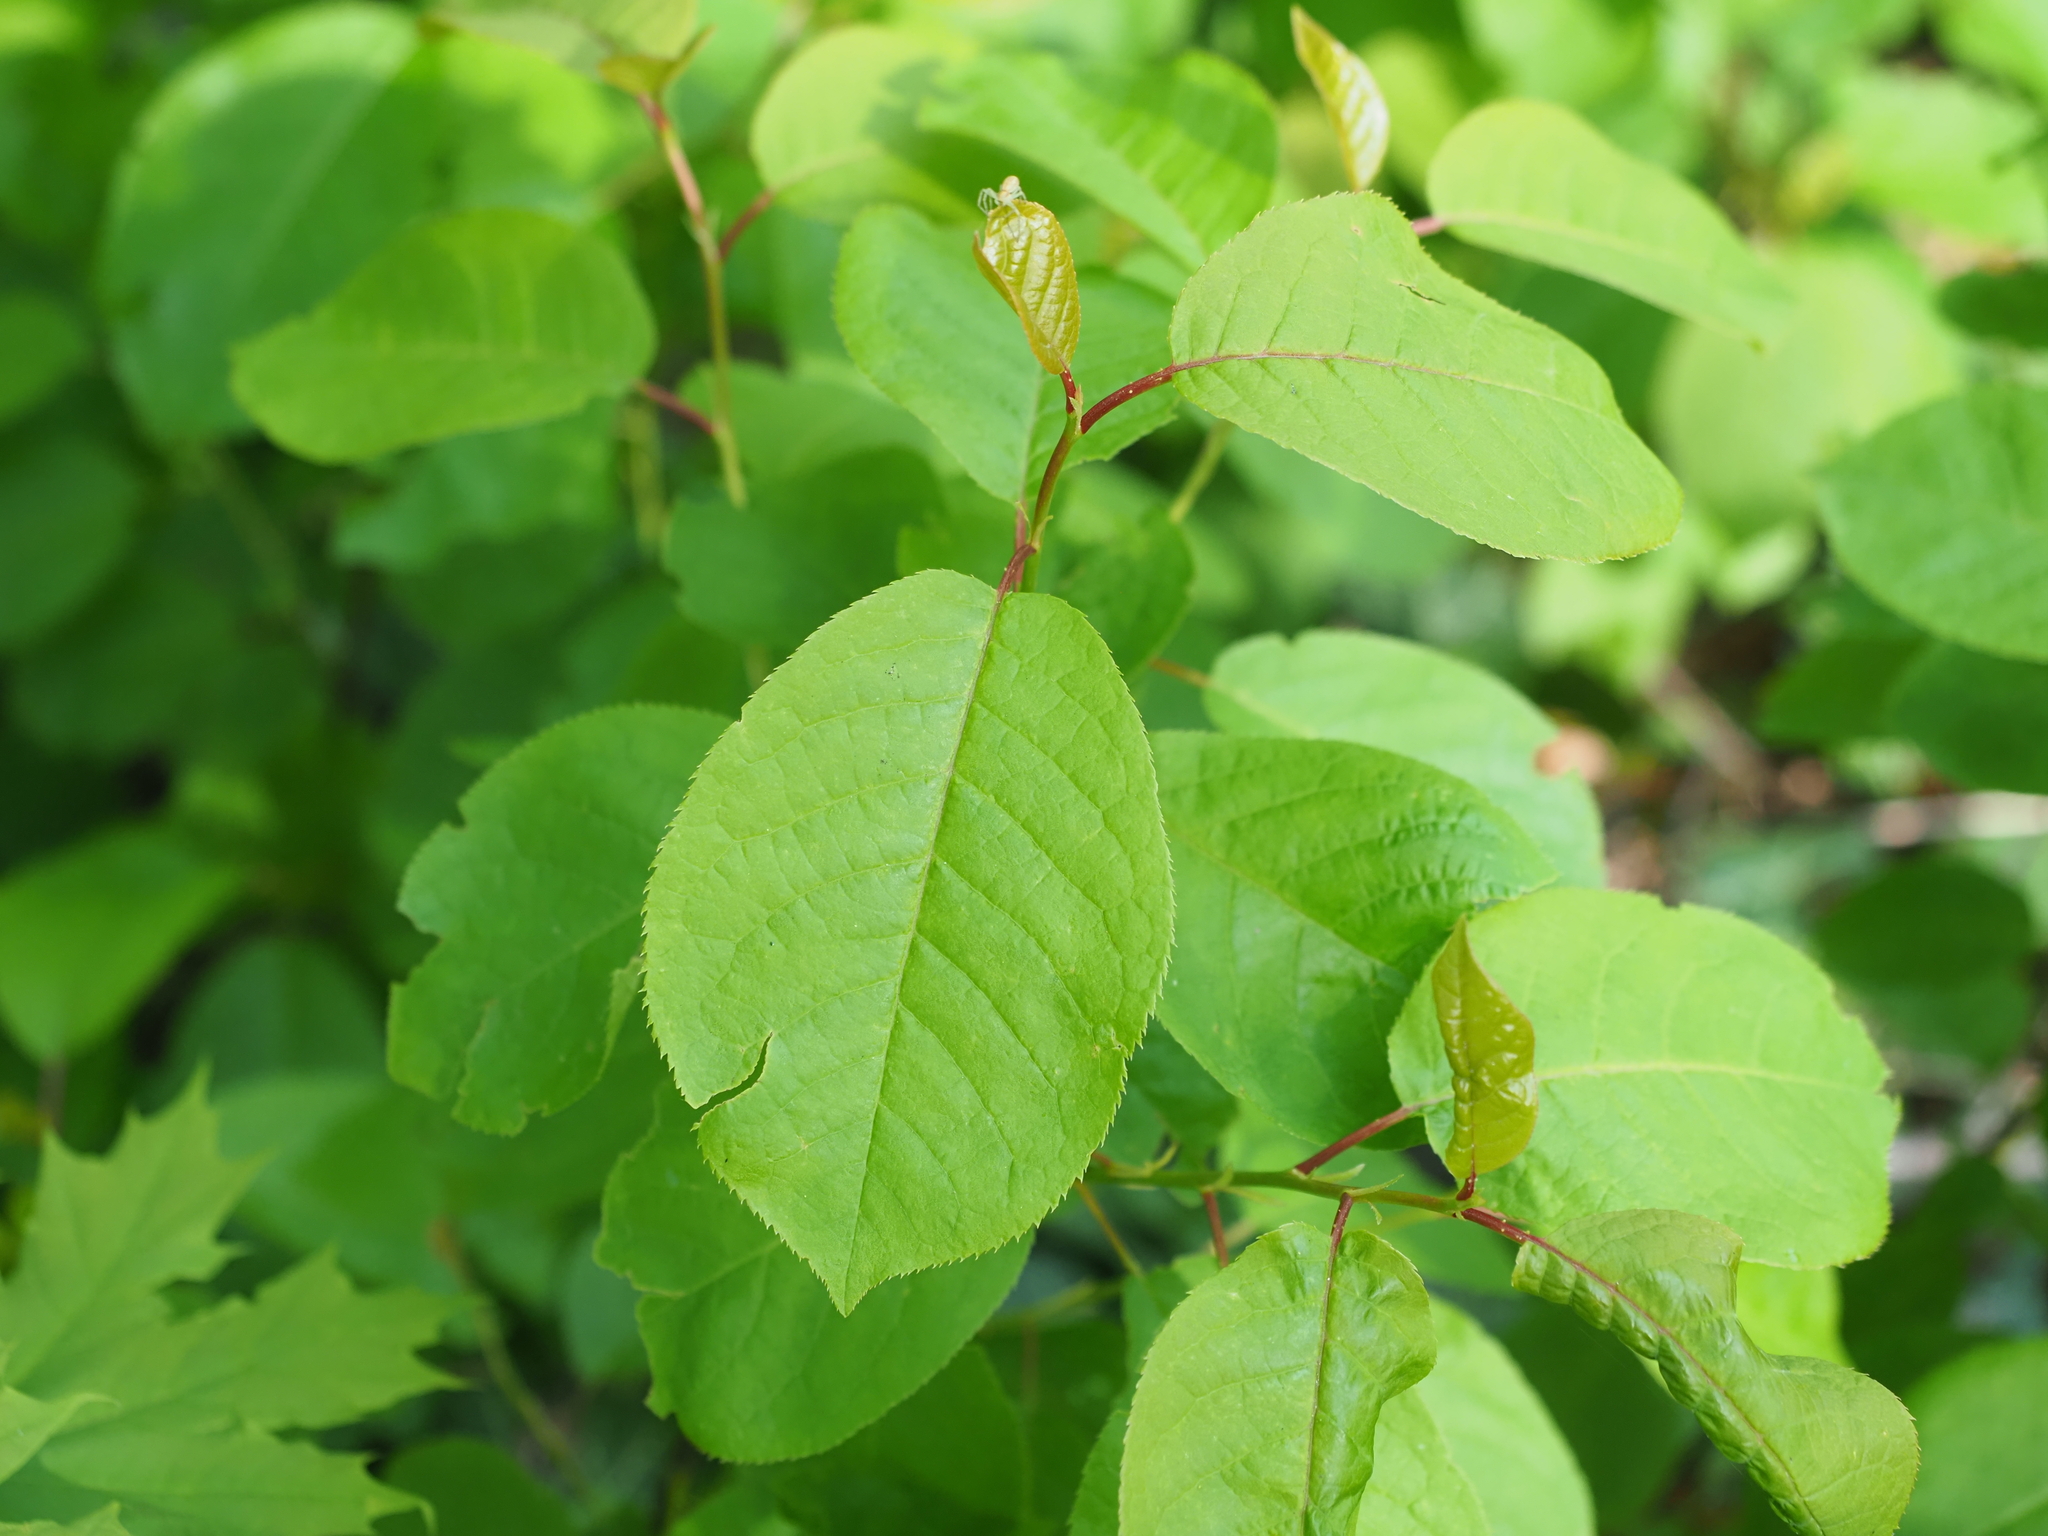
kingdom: Plantae
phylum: Tracheophyta
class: Magnoliopsida
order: Rosales
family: Rosaceae
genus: Prunus
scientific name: Prunus padus
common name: Bird cherry
